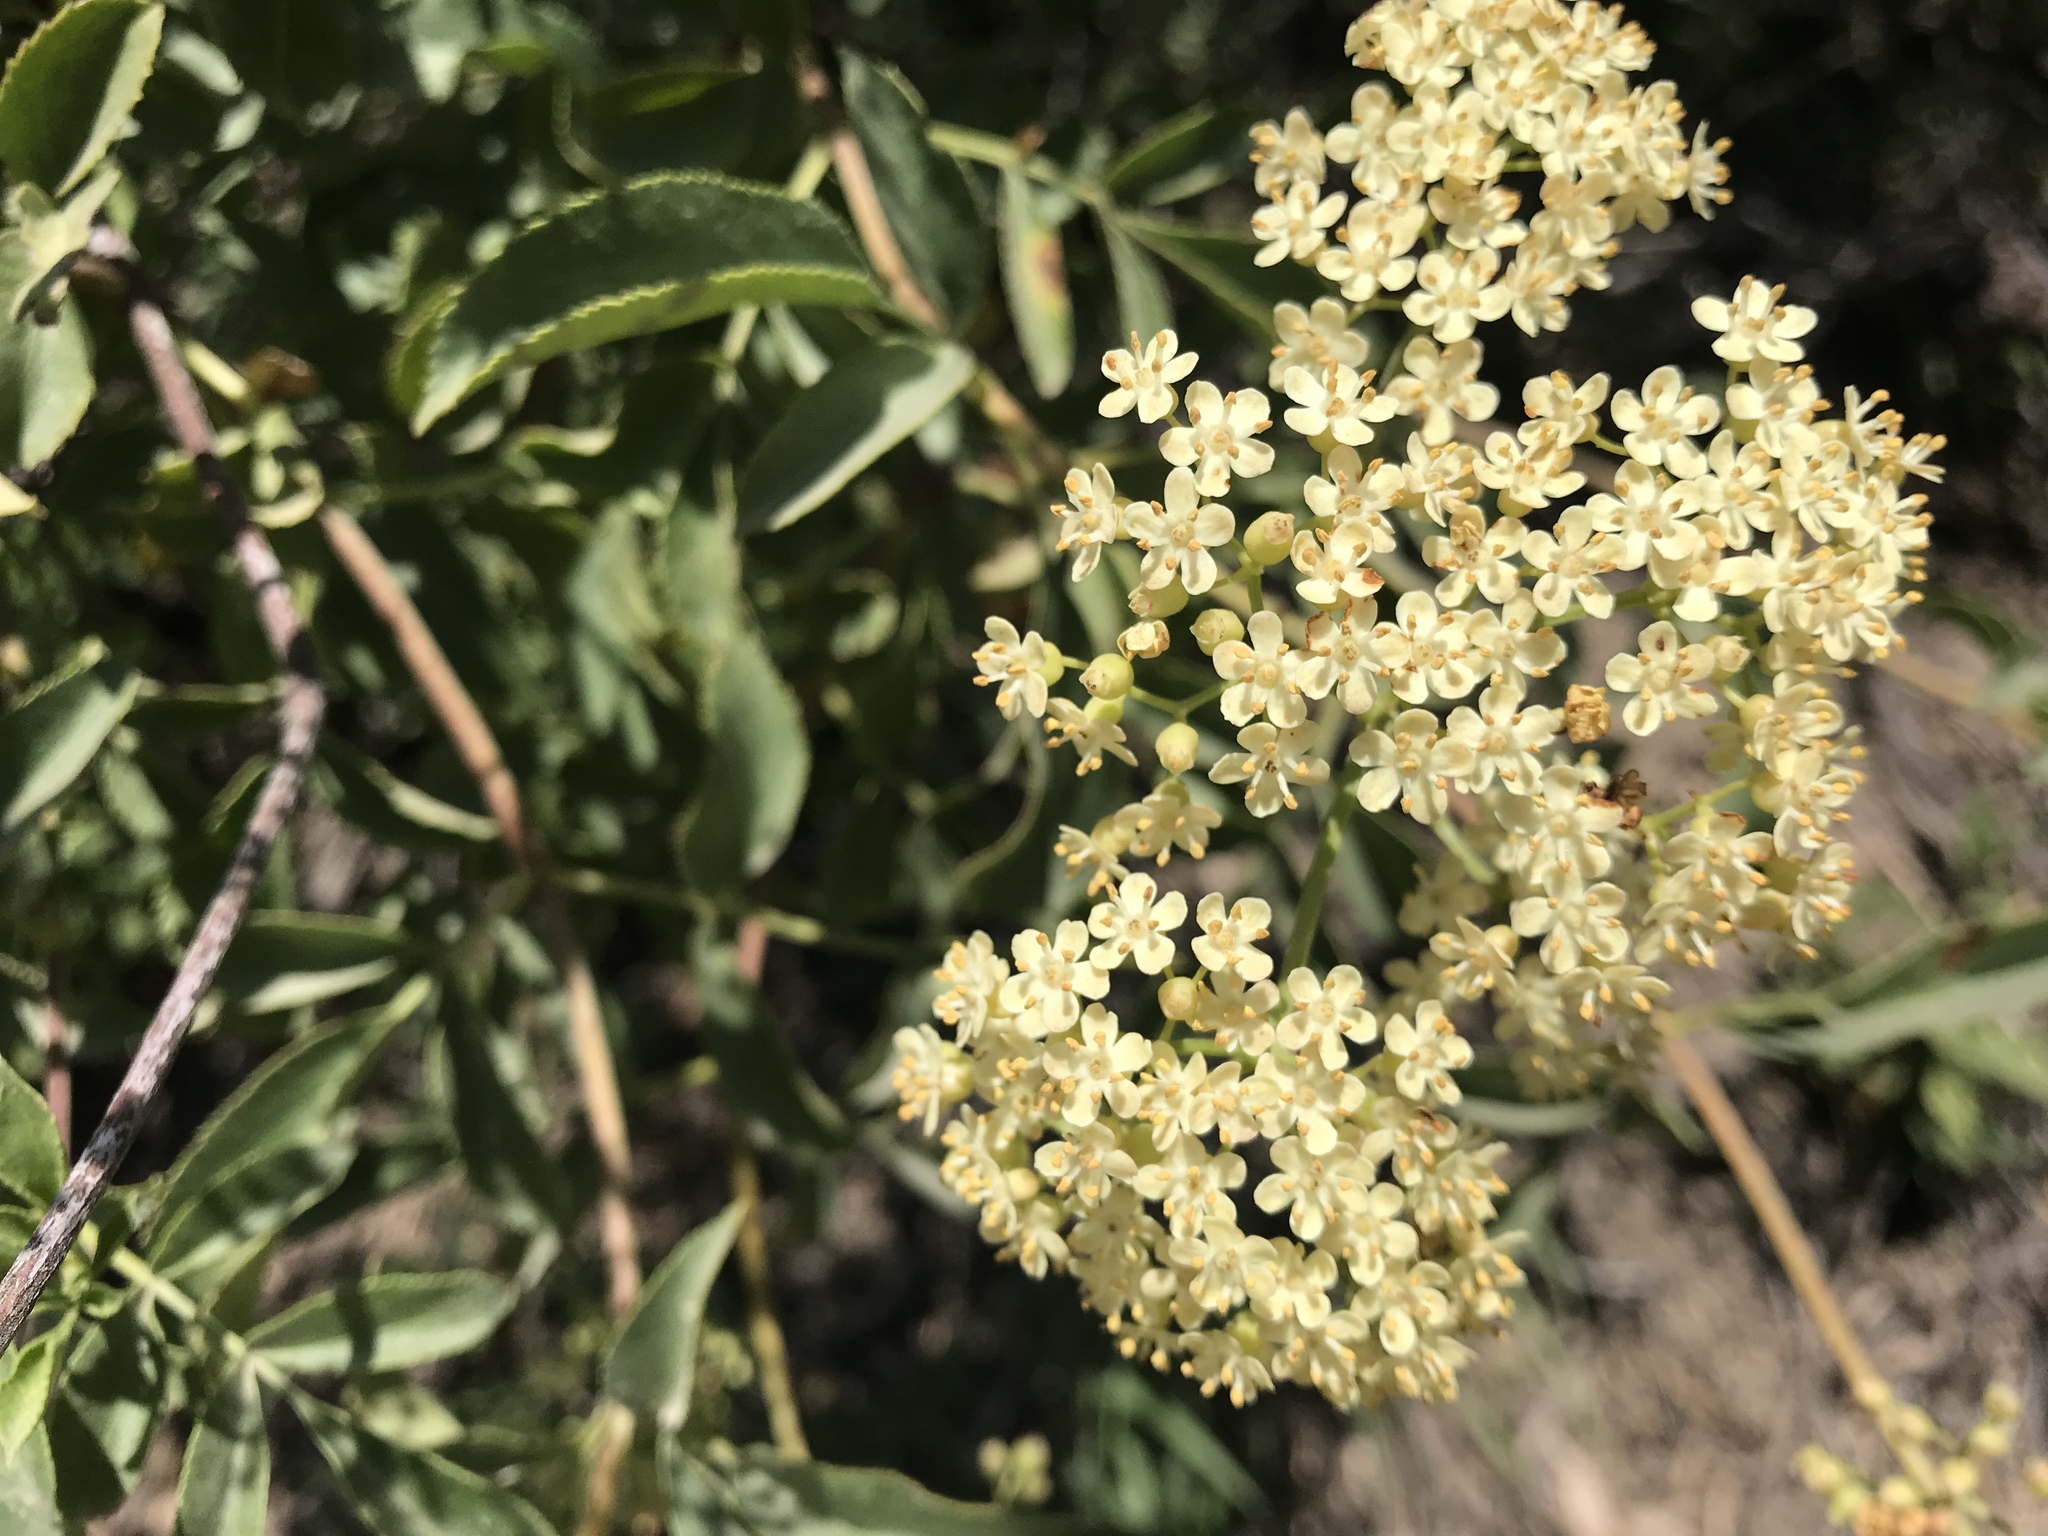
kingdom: Plantae
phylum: Tracheophyta
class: Magnoliopsida
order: Dipsacales
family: Viburnaceae
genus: Sambucus
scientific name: Sambucus cerulea
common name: Blue elder
